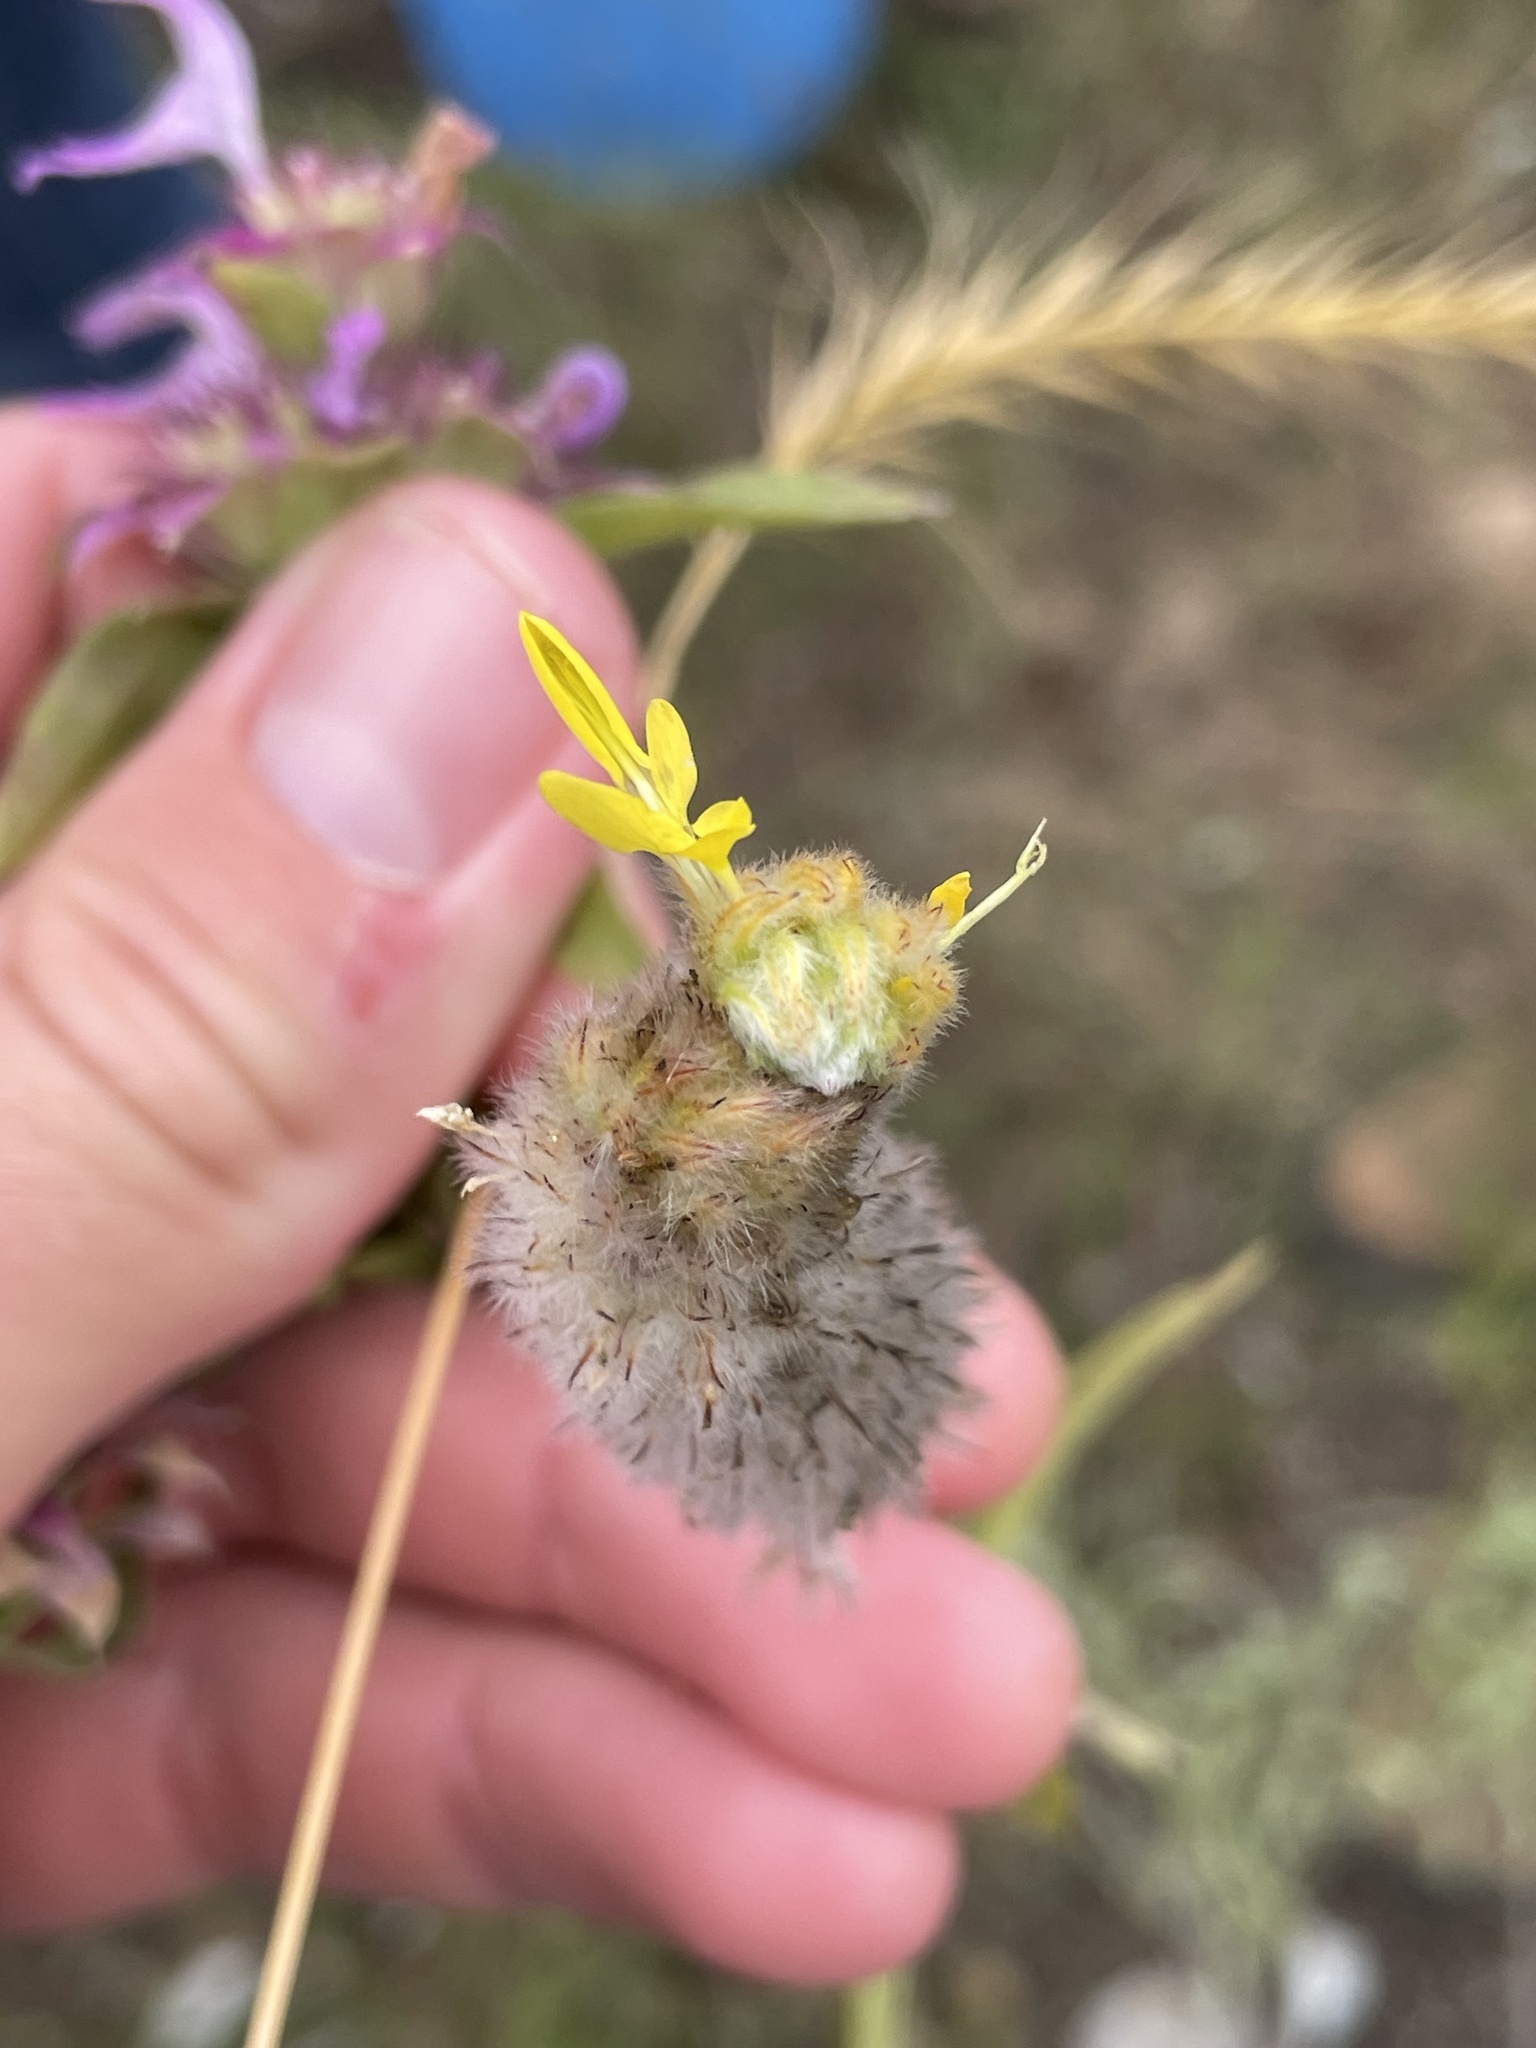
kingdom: Plantae
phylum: Tracheophyta
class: Magnoliopsida
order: Fabales
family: Fabaceae
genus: Dalea
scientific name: Dalea aurea
